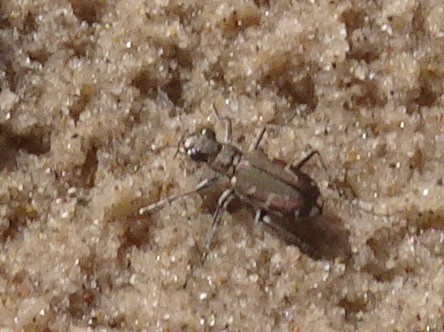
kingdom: Animalia
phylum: Arthropoda
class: Insecta
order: Coleoptera
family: Carabidae
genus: Cicindela
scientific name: Cicindela repanda
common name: Bronzed tiger beetle
